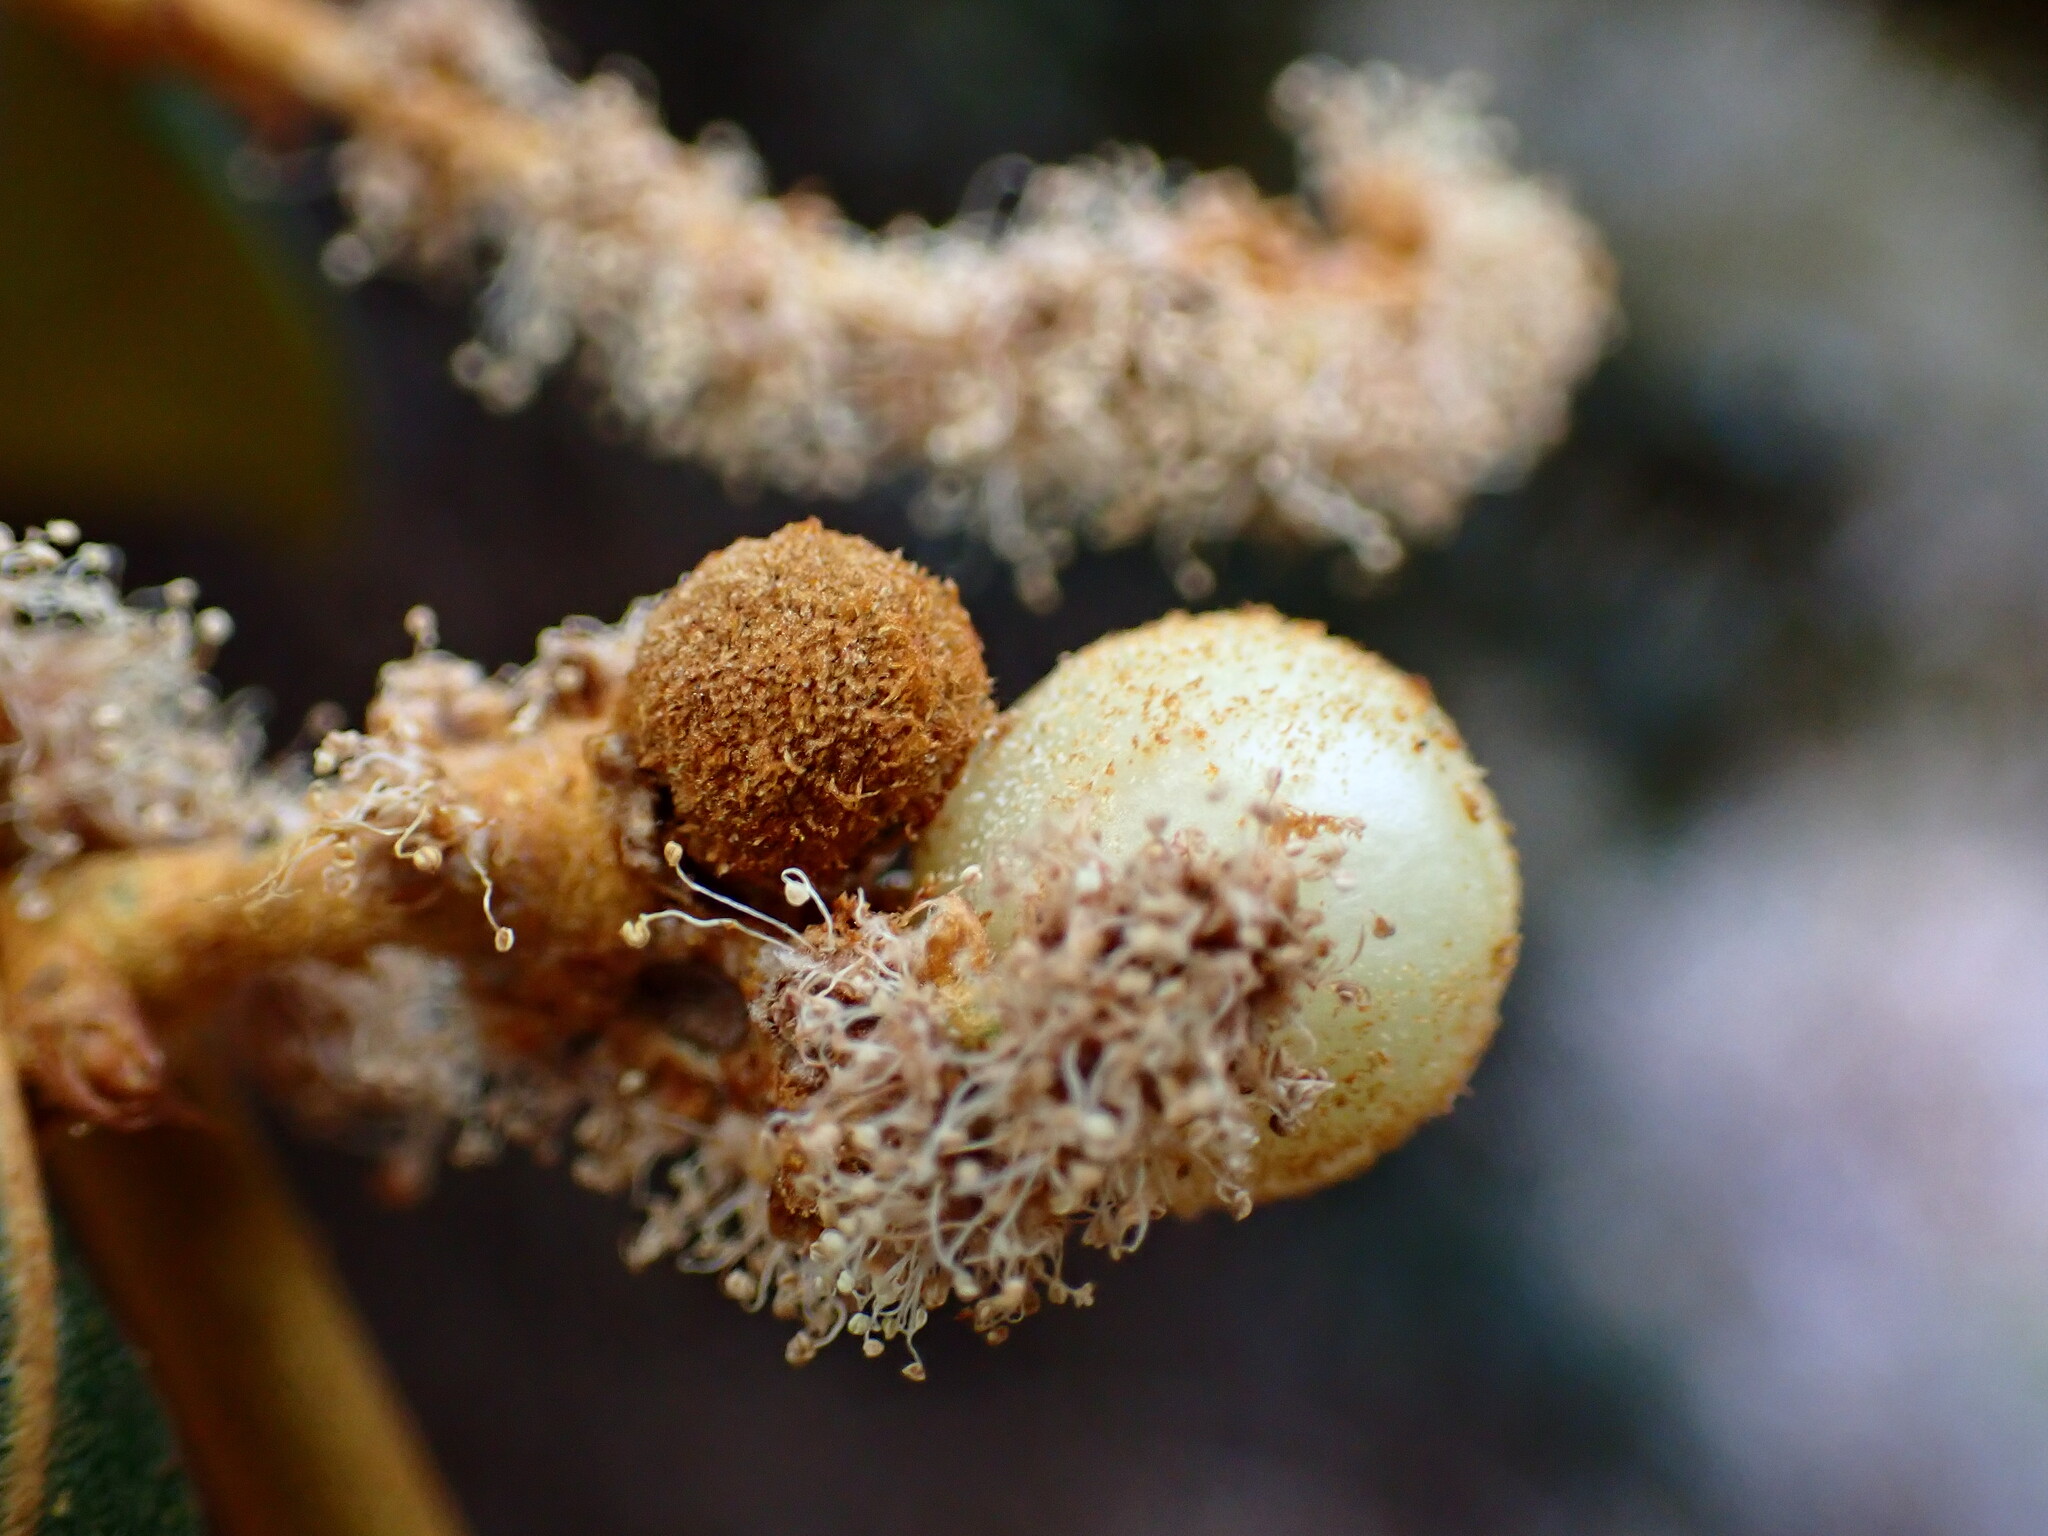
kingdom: Animalia
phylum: Arthropoda
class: Insecta
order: Hymenoptera
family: Cynipidae
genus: Synergus
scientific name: Synergus castanopsidis
